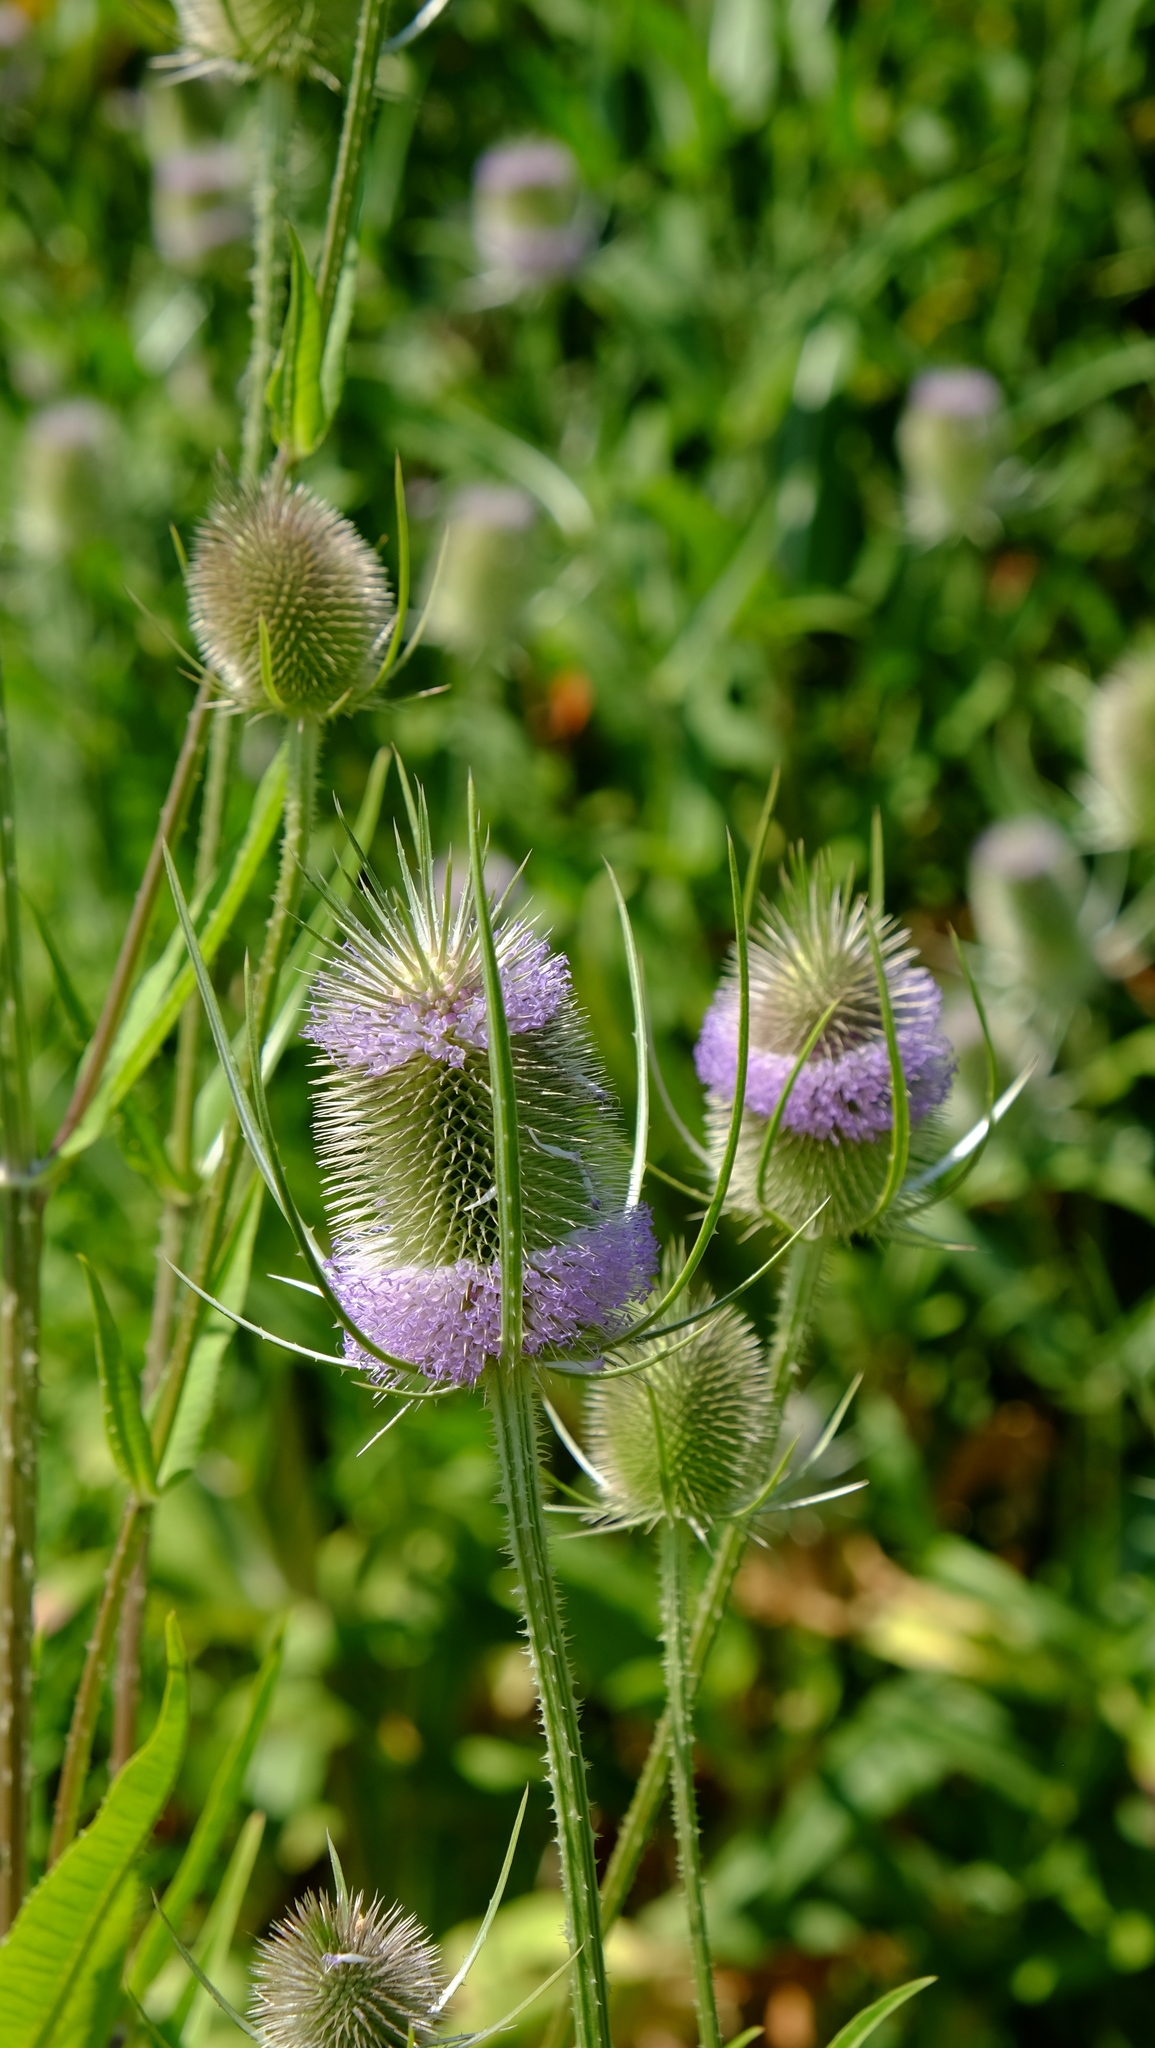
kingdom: Plantae
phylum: Tracheophyta
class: Magnoliopsida
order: Dipsacales
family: Caprifoliaceae
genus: Dipsacus
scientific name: Dipsacus fullonum
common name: Teasel
